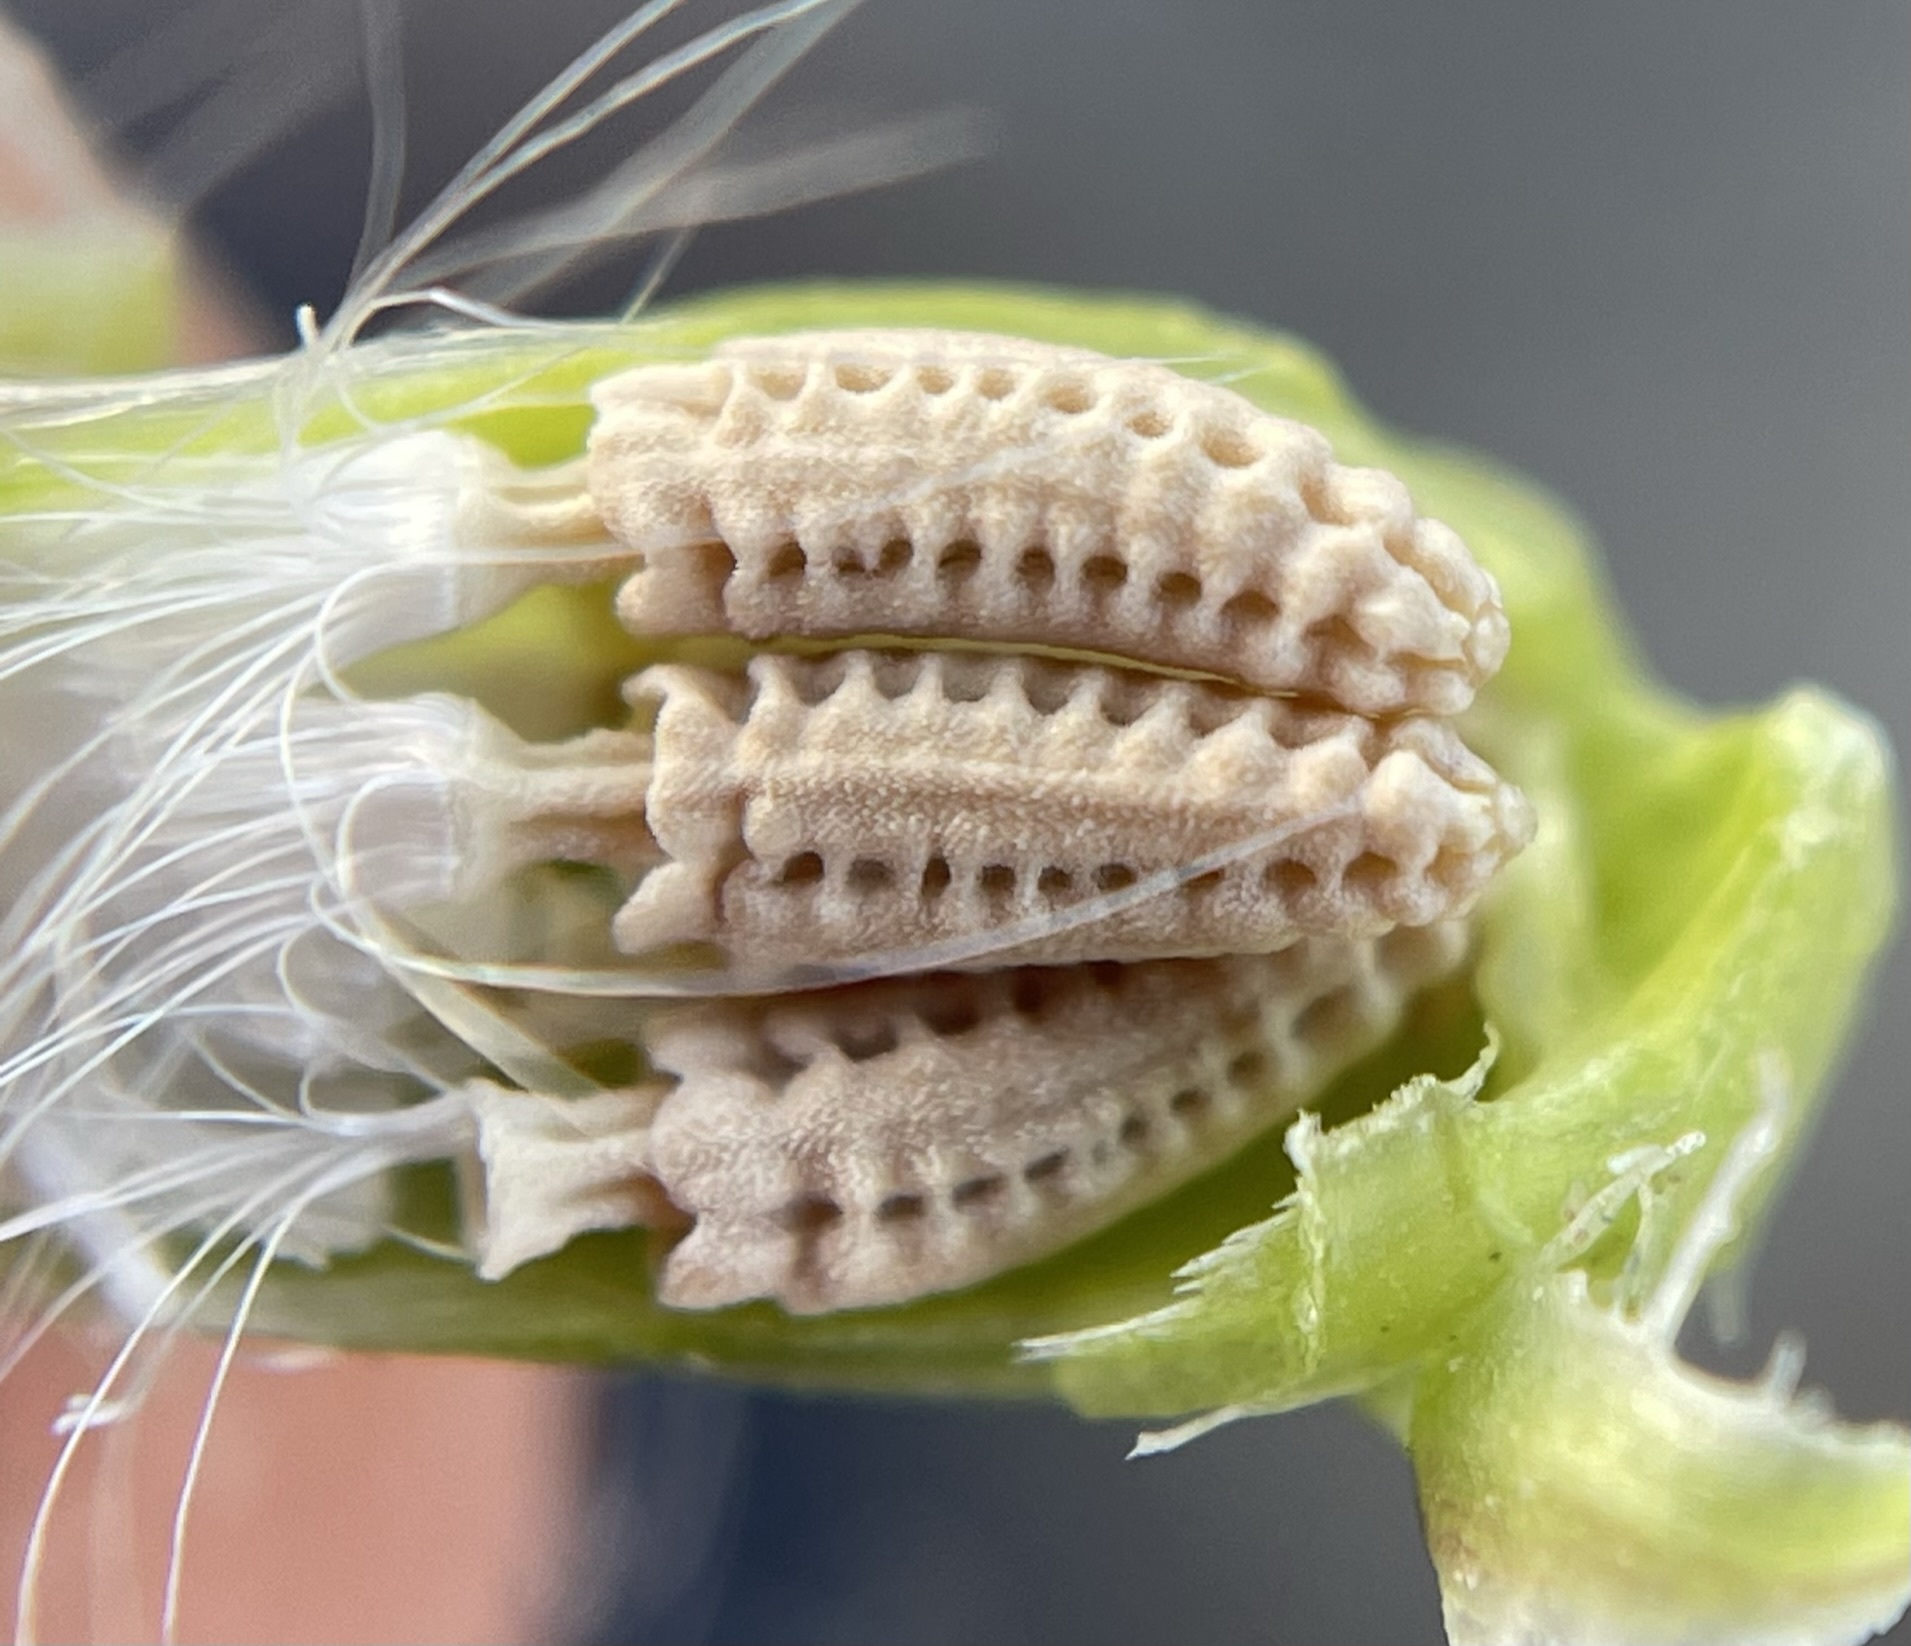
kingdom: Plantae
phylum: Tracheophyta
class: Magnoliopsida
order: Asterales
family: Asteraceae
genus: Glyptopleura
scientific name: Glyptopleura marginata
